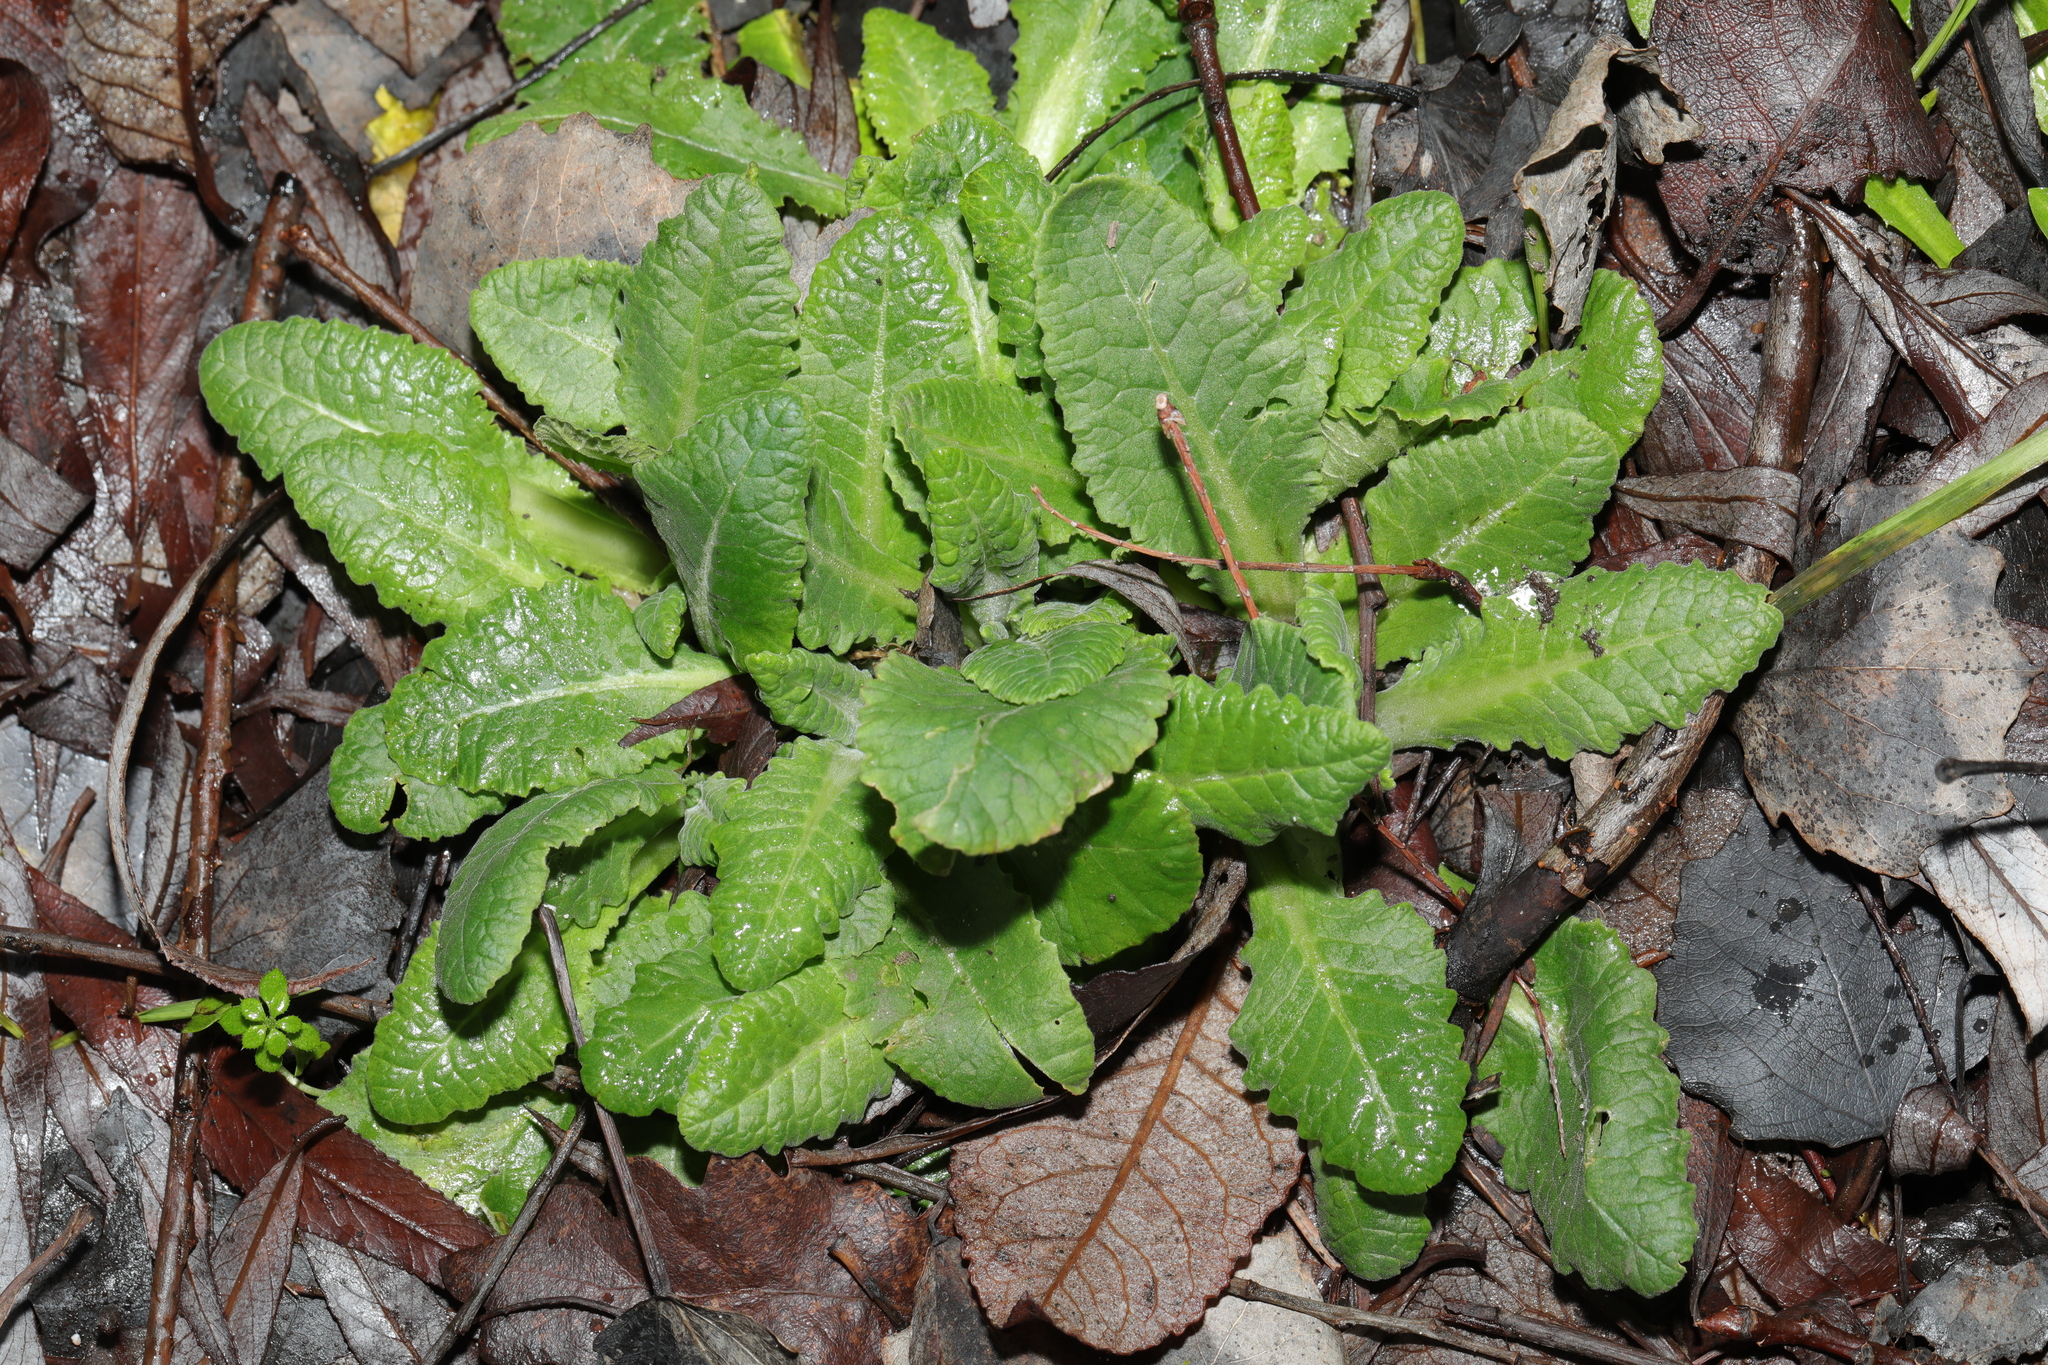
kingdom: Plantae
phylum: Tracheophyta
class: Magnoliopsida
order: Ericales
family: Primulaceae
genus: Primula
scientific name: Primula vulgaris
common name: Primrose
